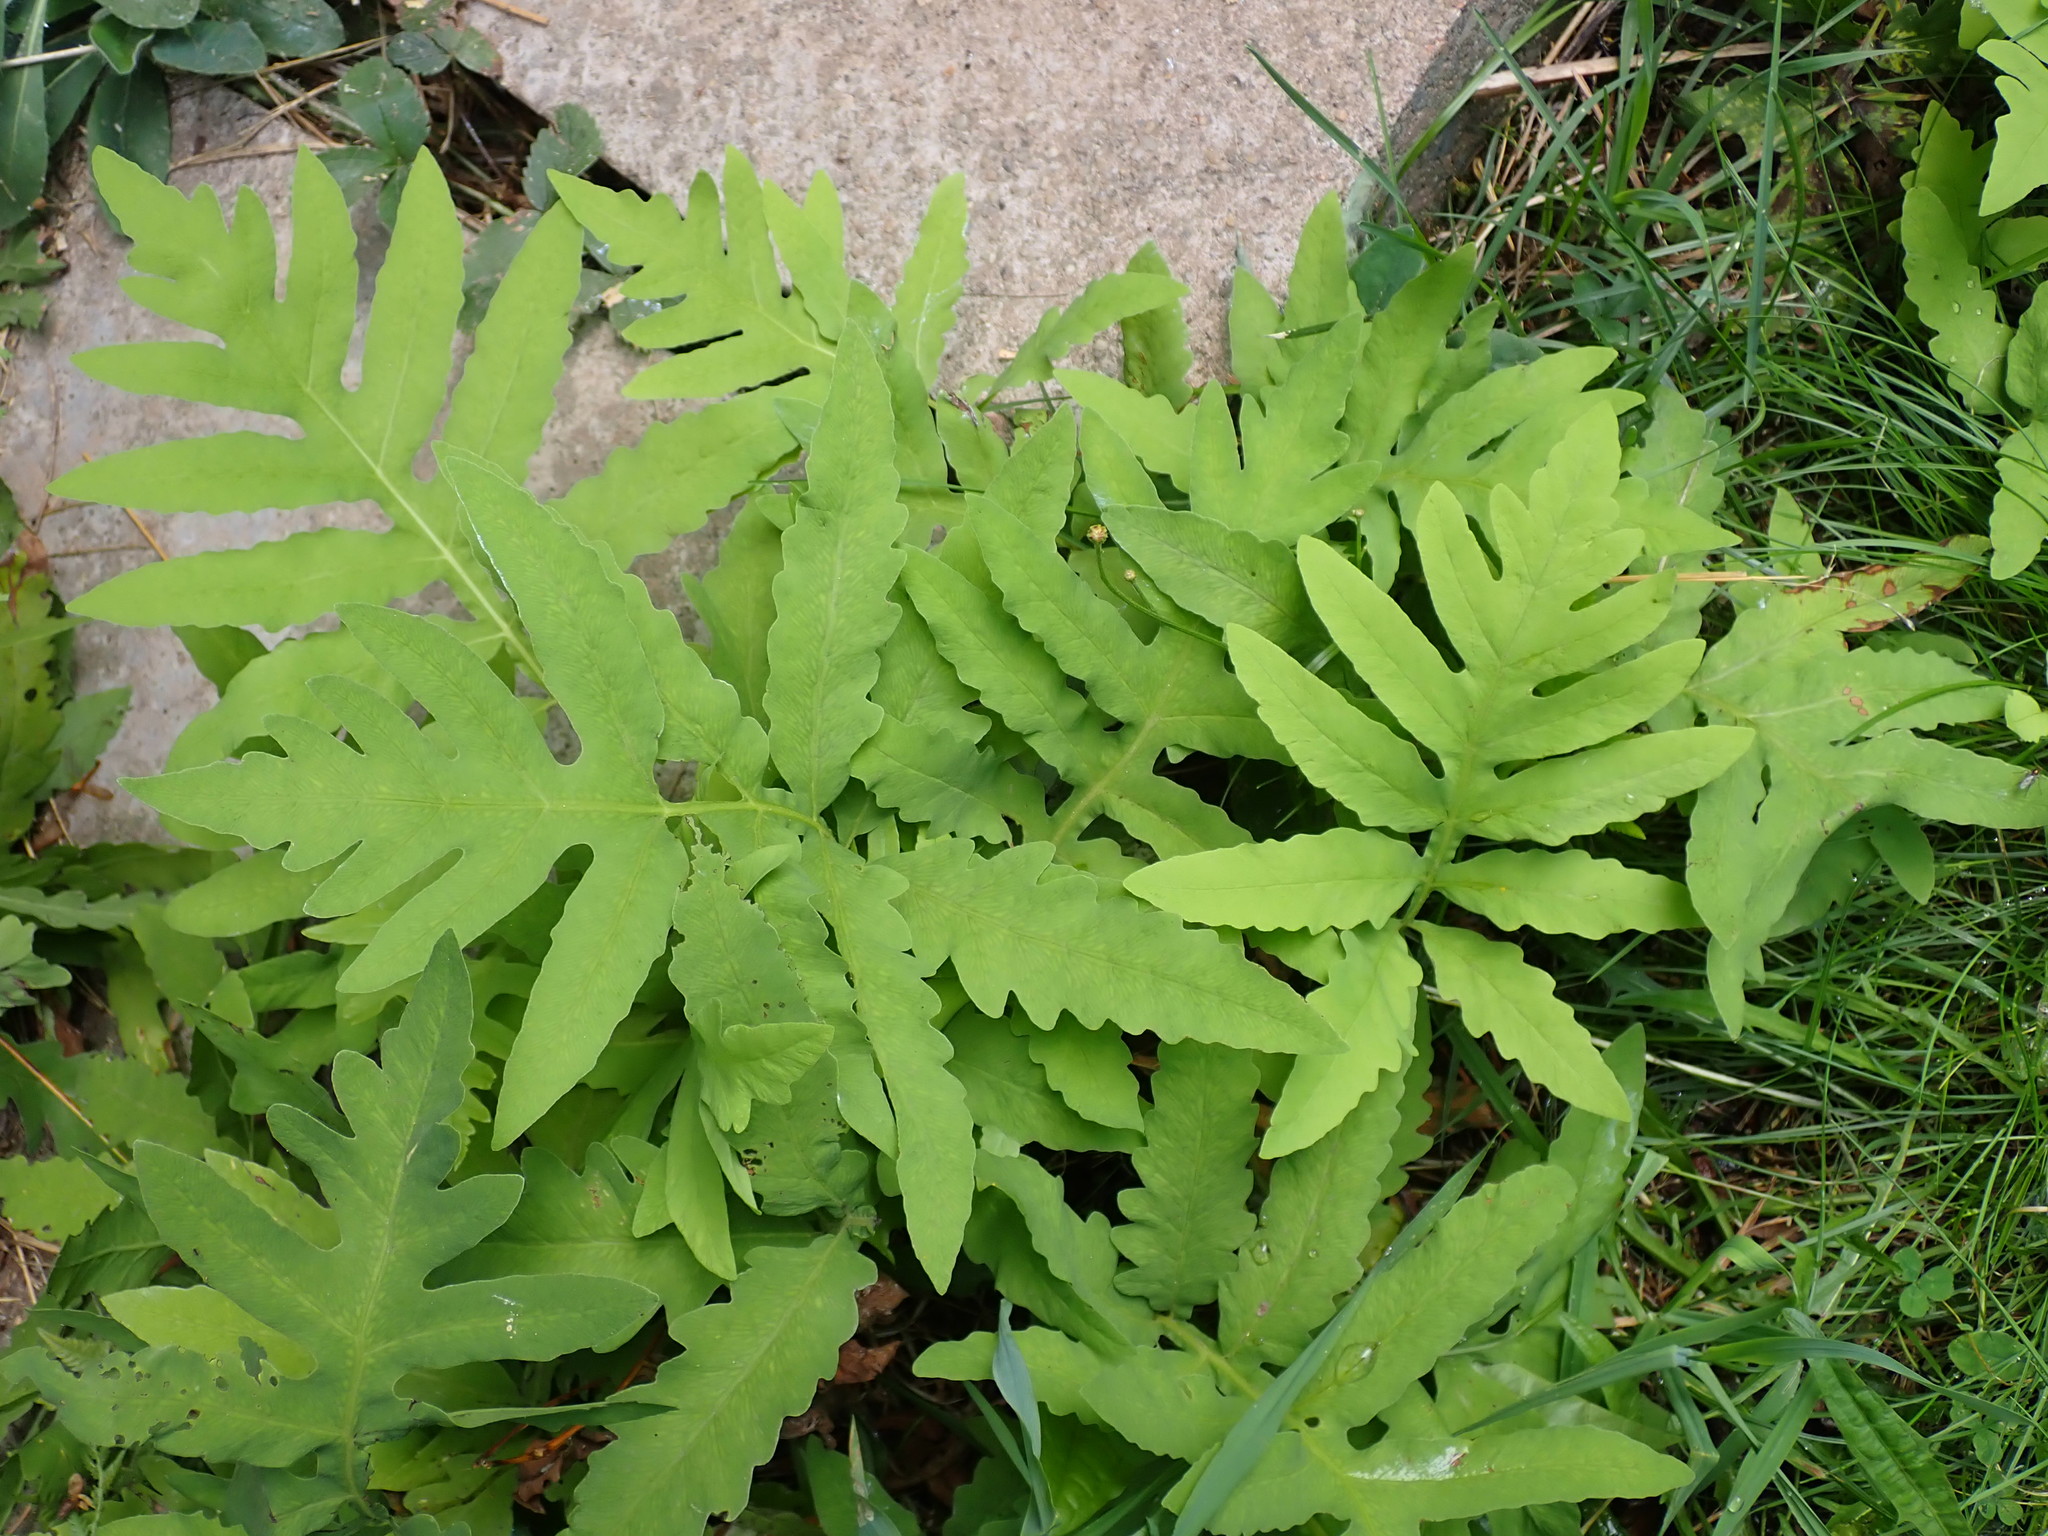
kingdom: Plantae
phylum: Tracheophyta
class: Polypodiopsida
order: Polypodiales
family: Onocleaceae
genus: Onoclea
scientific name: Onoclea sensibilis
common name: Sensitive fern
